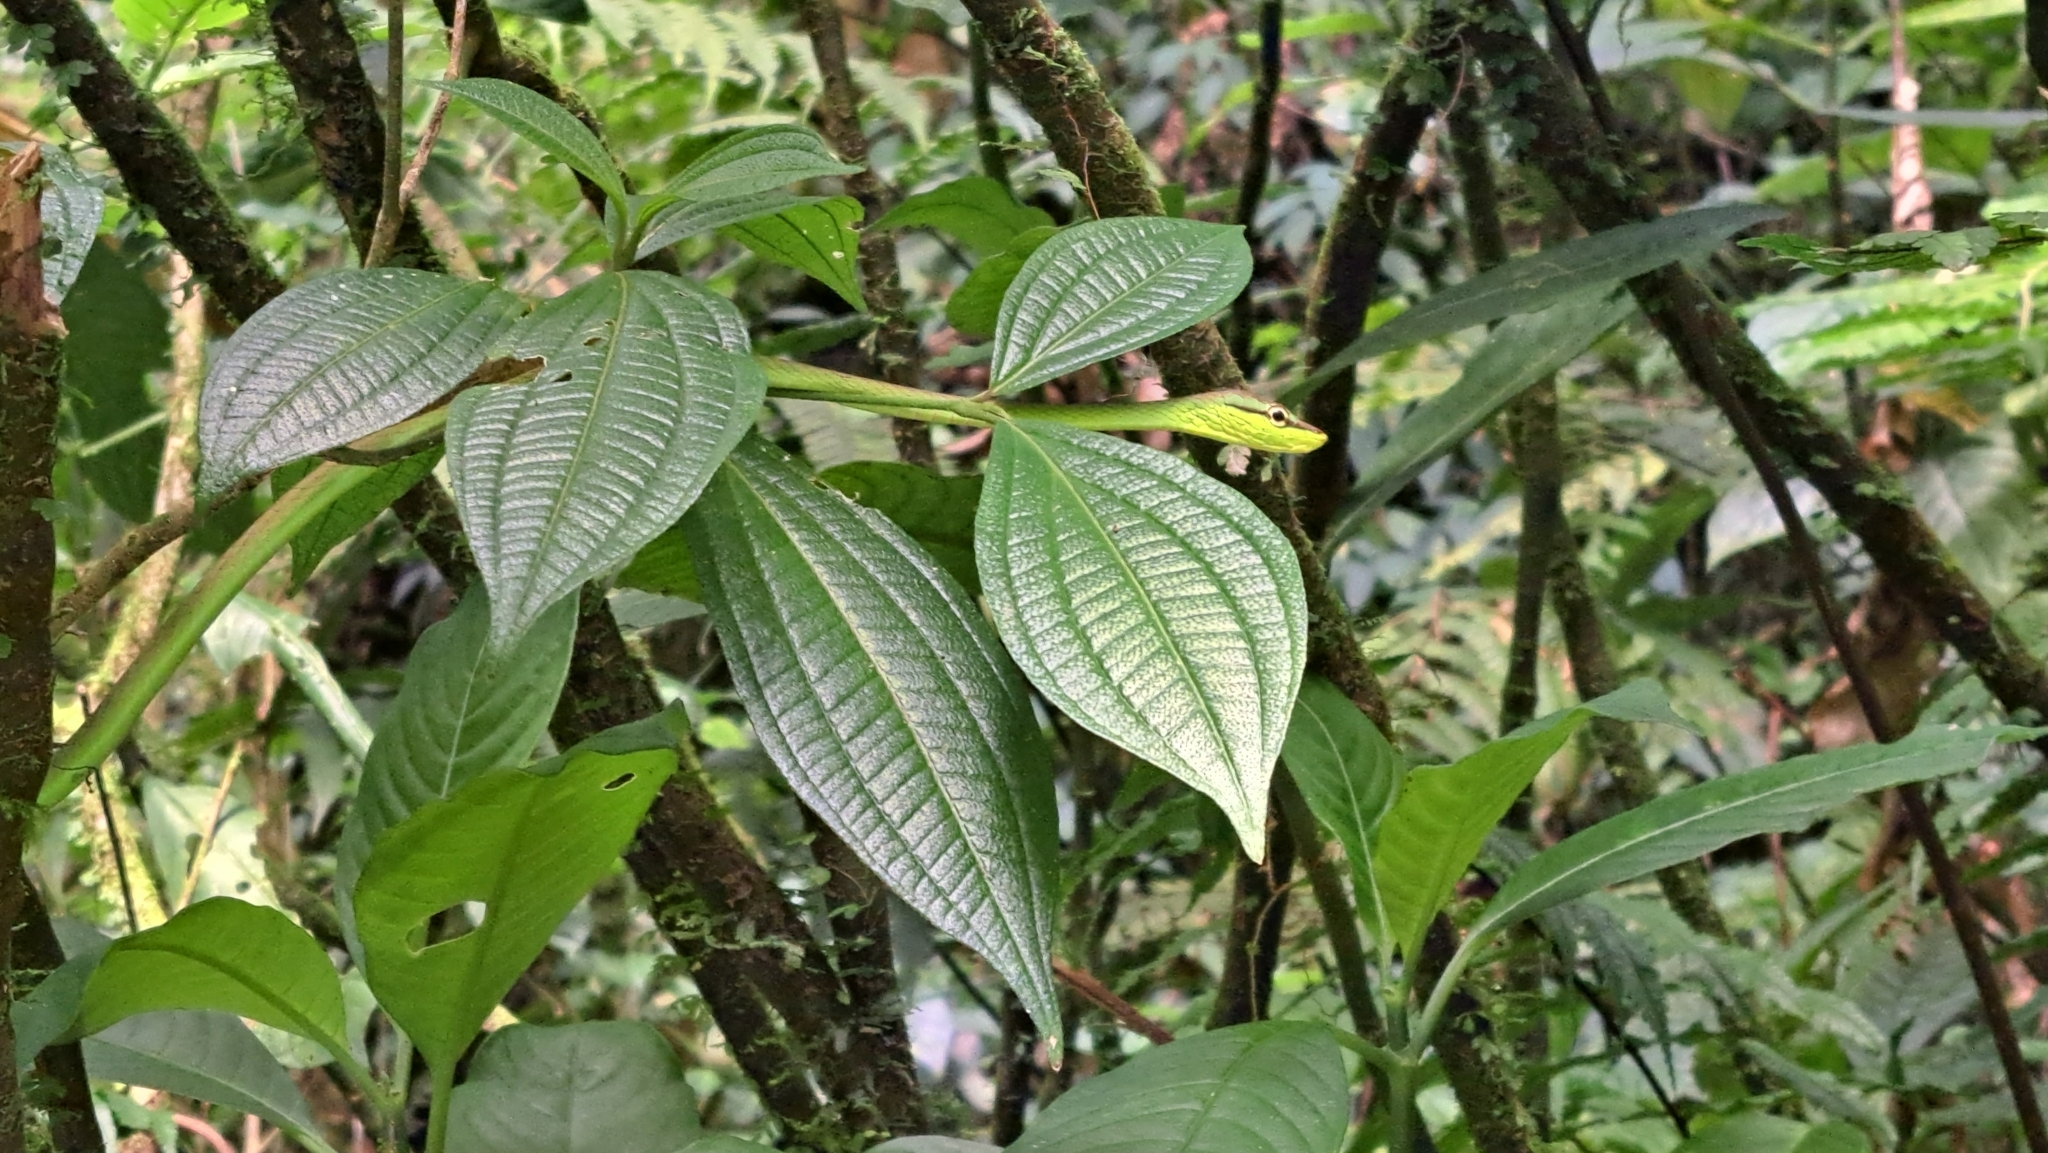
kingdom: Animalia
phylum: Chordata
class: Squamata
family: Colubridae
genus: Oxybelis
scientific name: Oxybelis brevirostris
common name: Cope's vine snake
